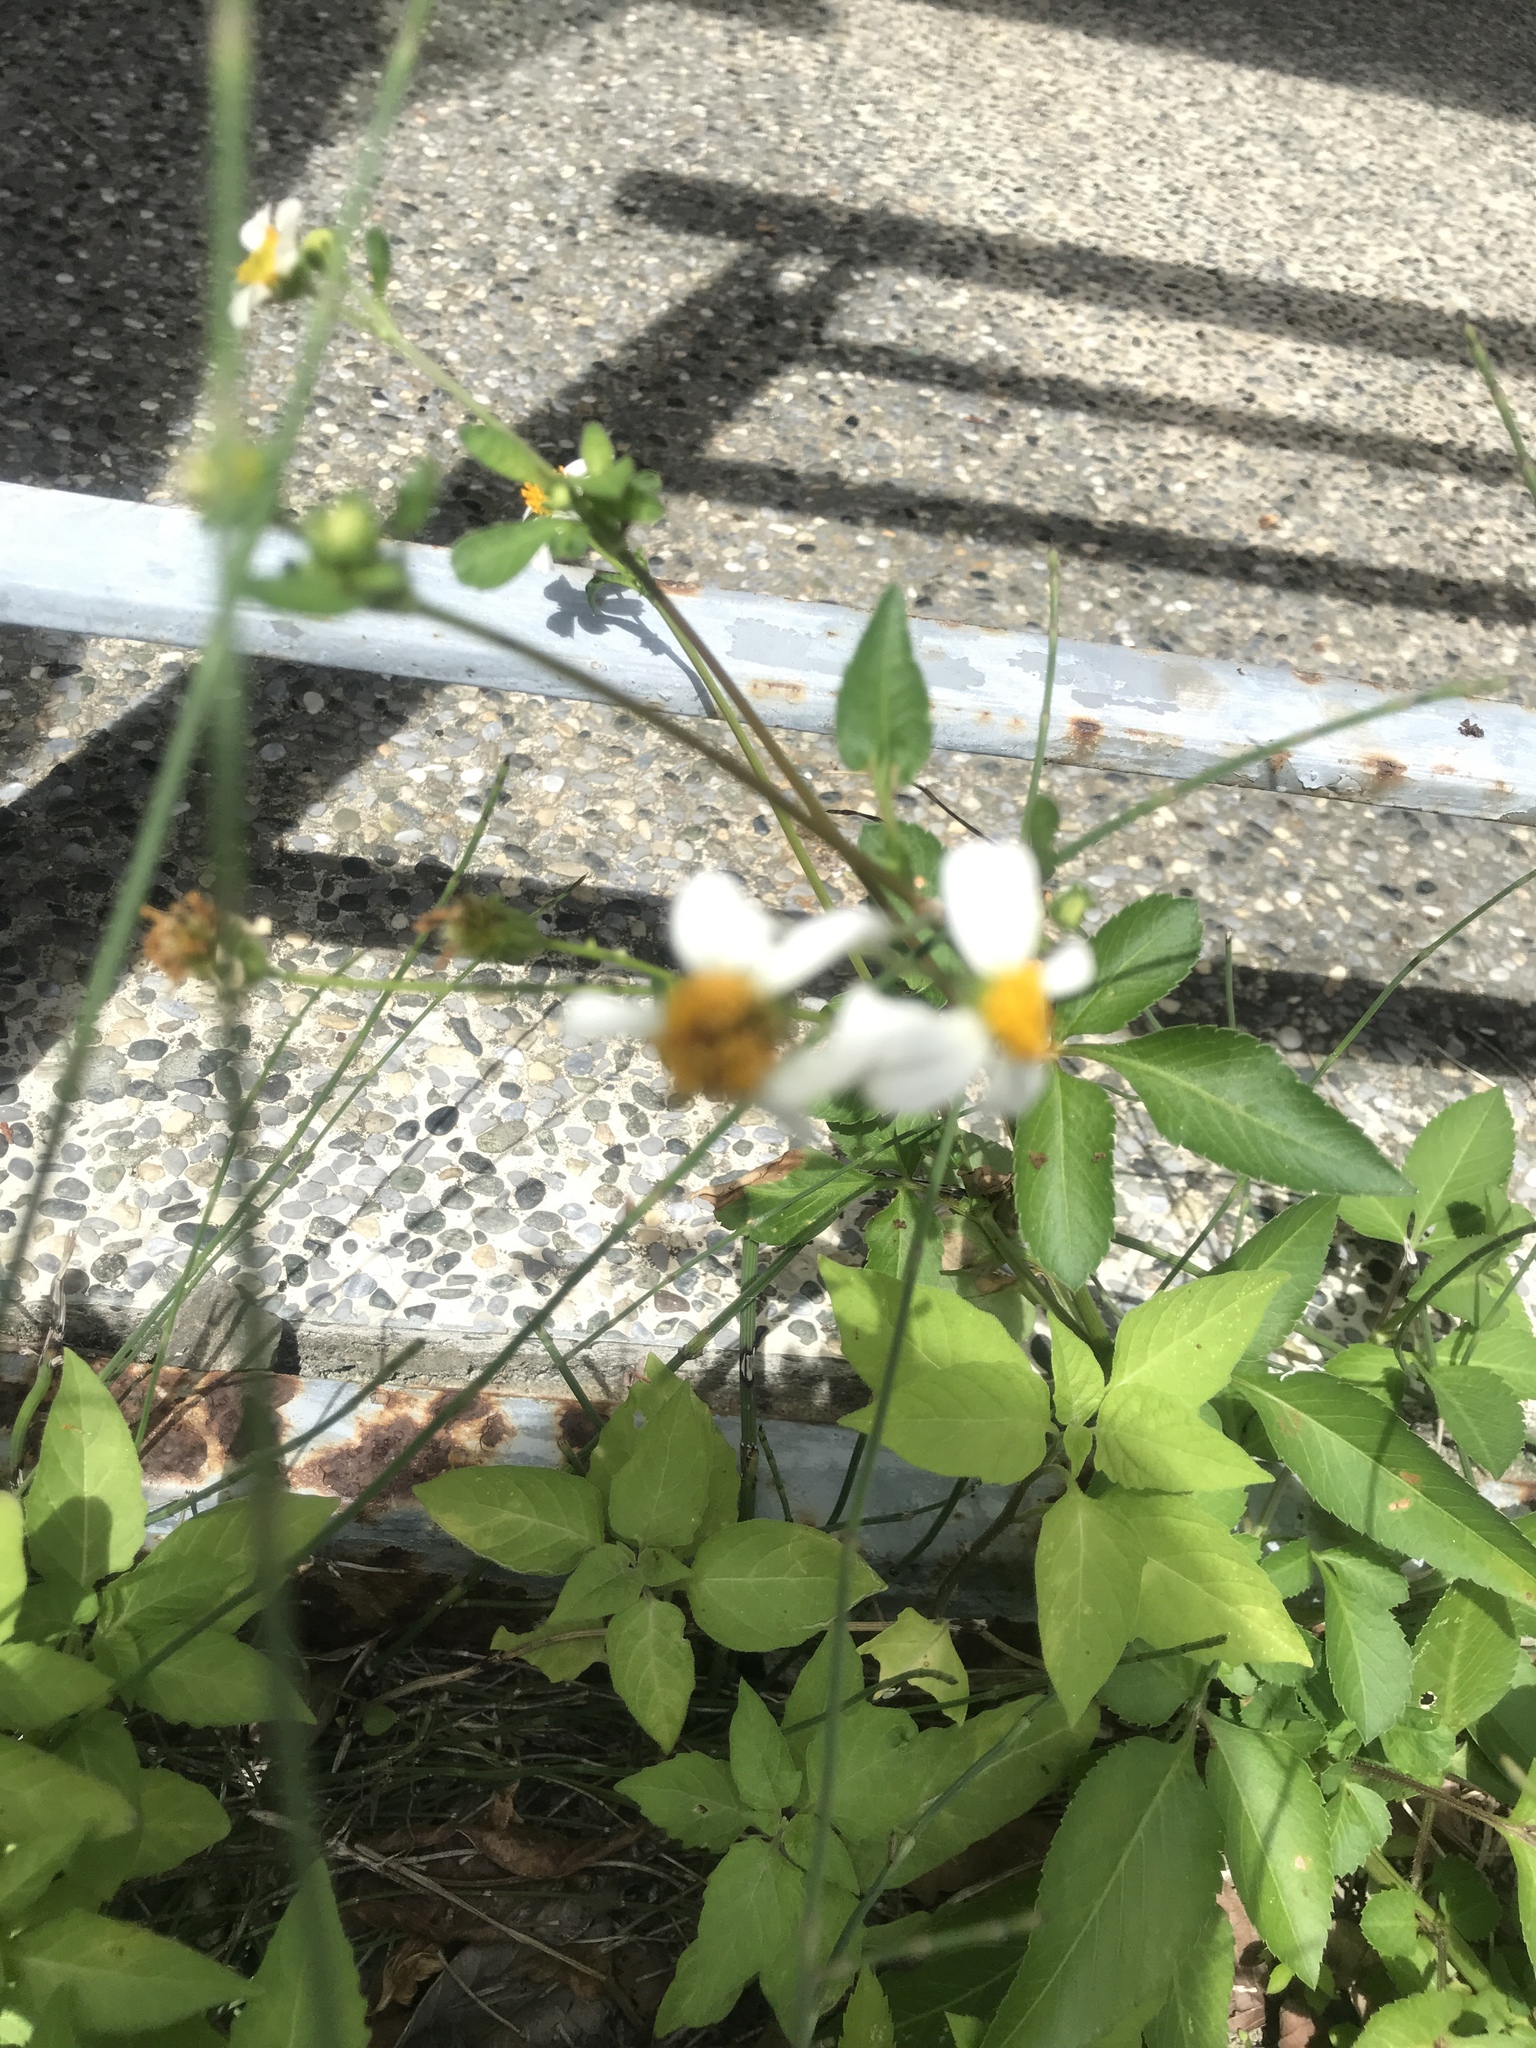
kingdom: Plantae
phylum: Tracheophyta
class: Magnoliopsida
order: Asterales
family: Asteraceae
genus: Bidens
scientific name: Bidens alba
